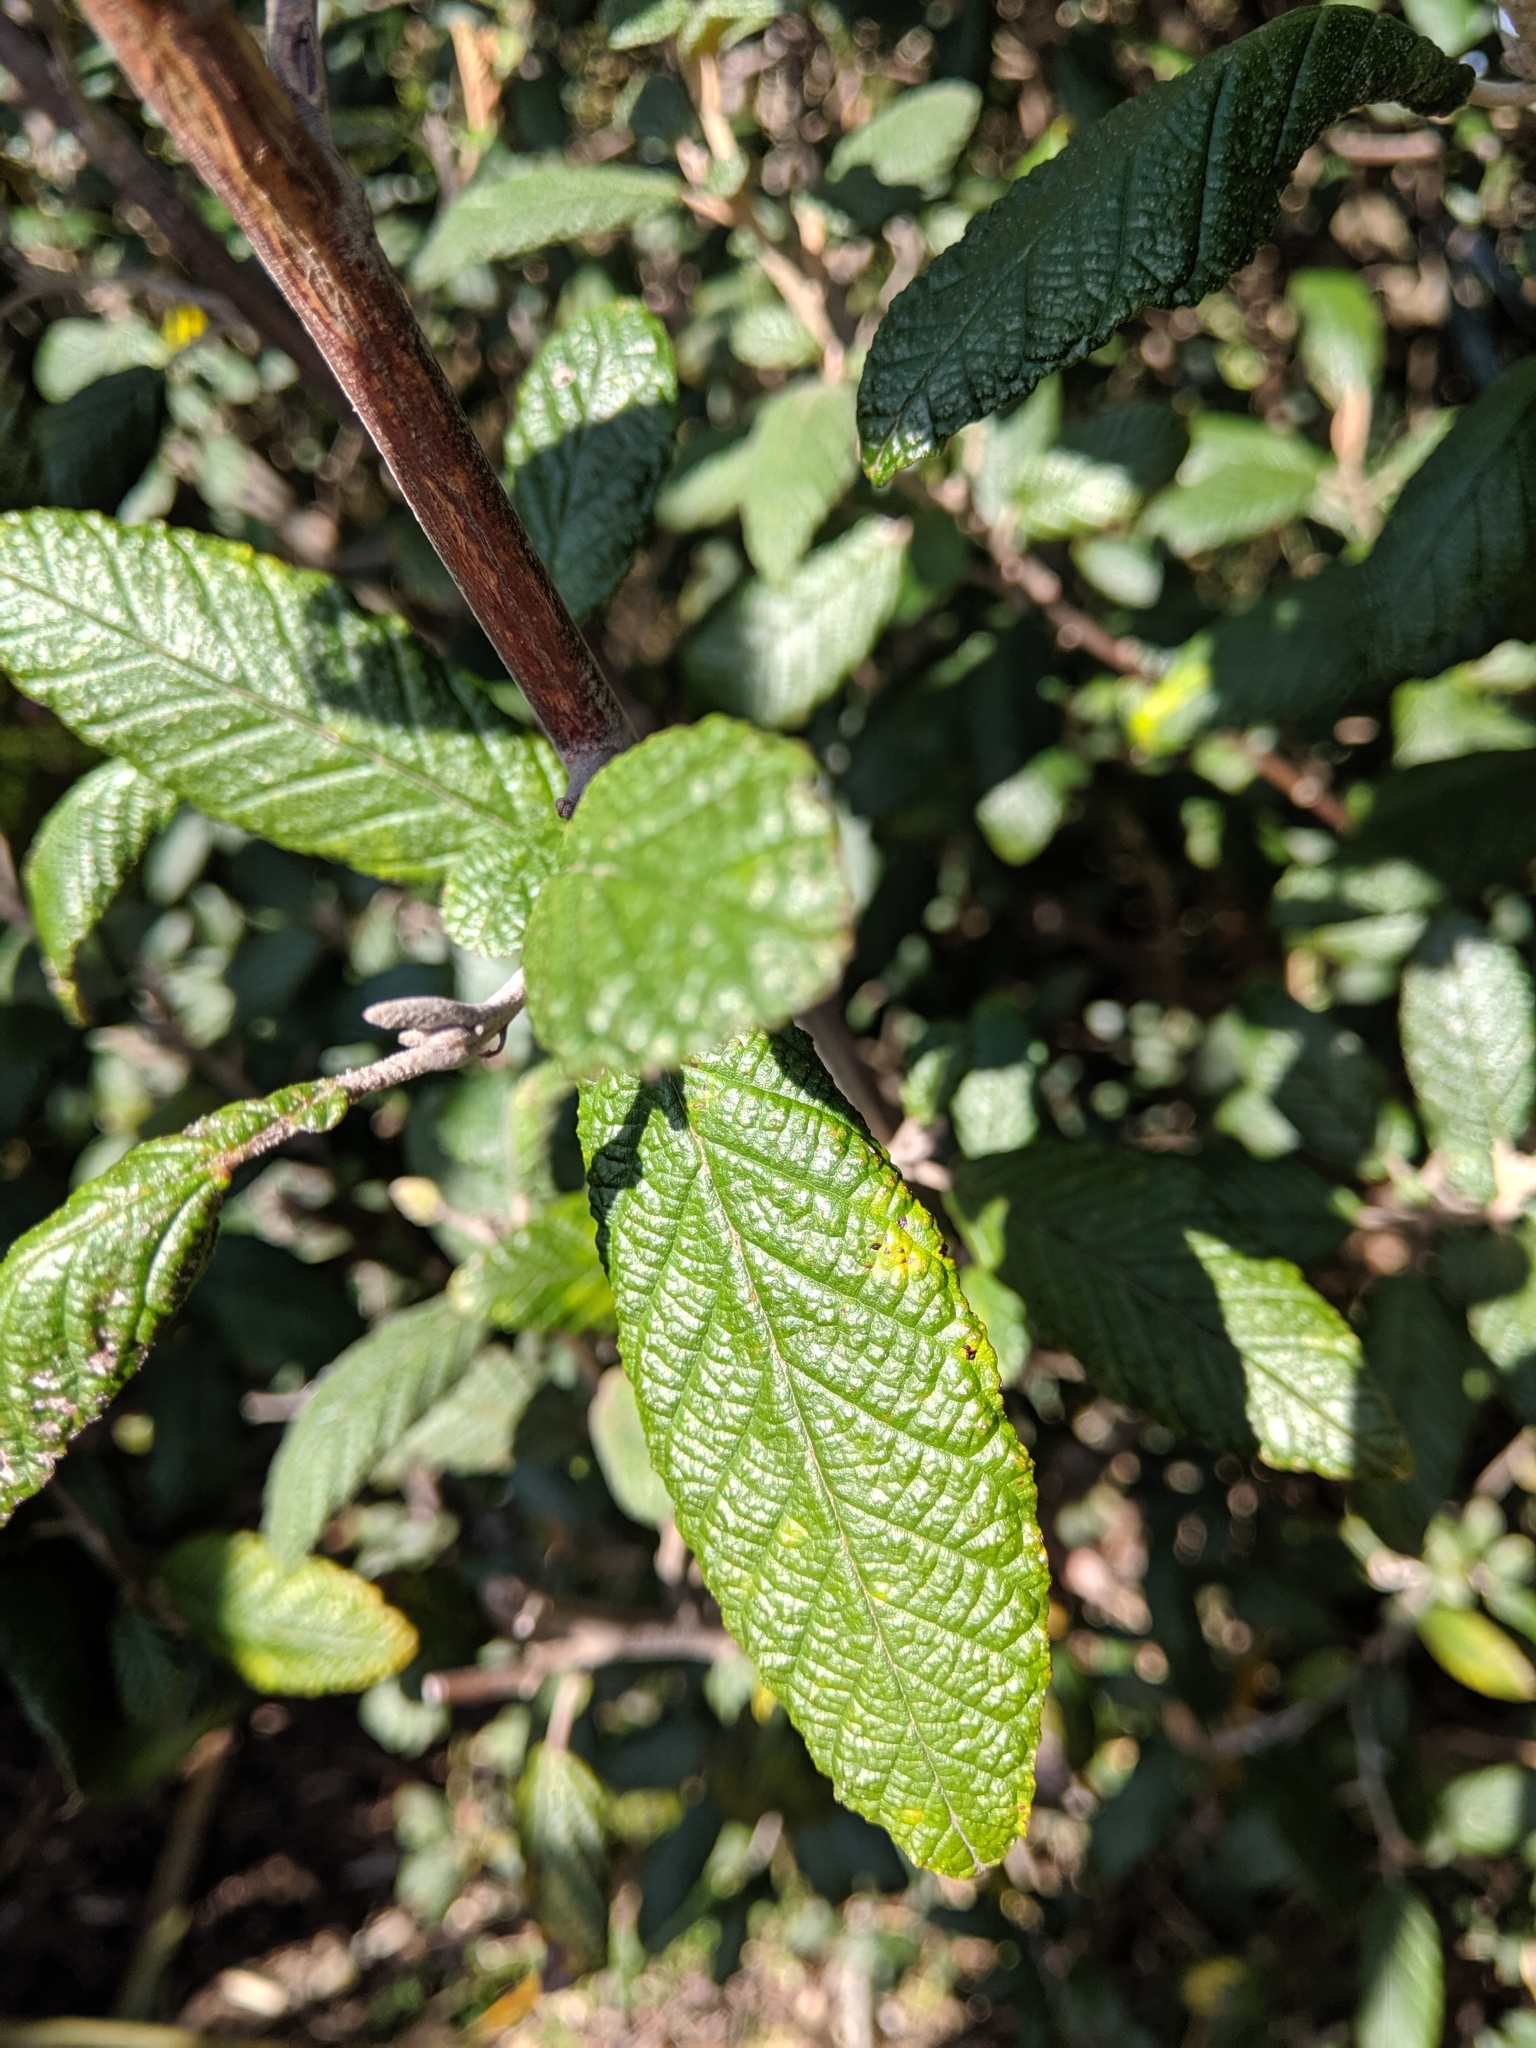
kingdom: Plantae
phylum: Tracheophyta
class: Magnoliopsida
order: Rosales
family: Rhamnaceae
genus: Pomaderris
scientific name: Pomaderris apetala
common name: Hazel pomaderris
